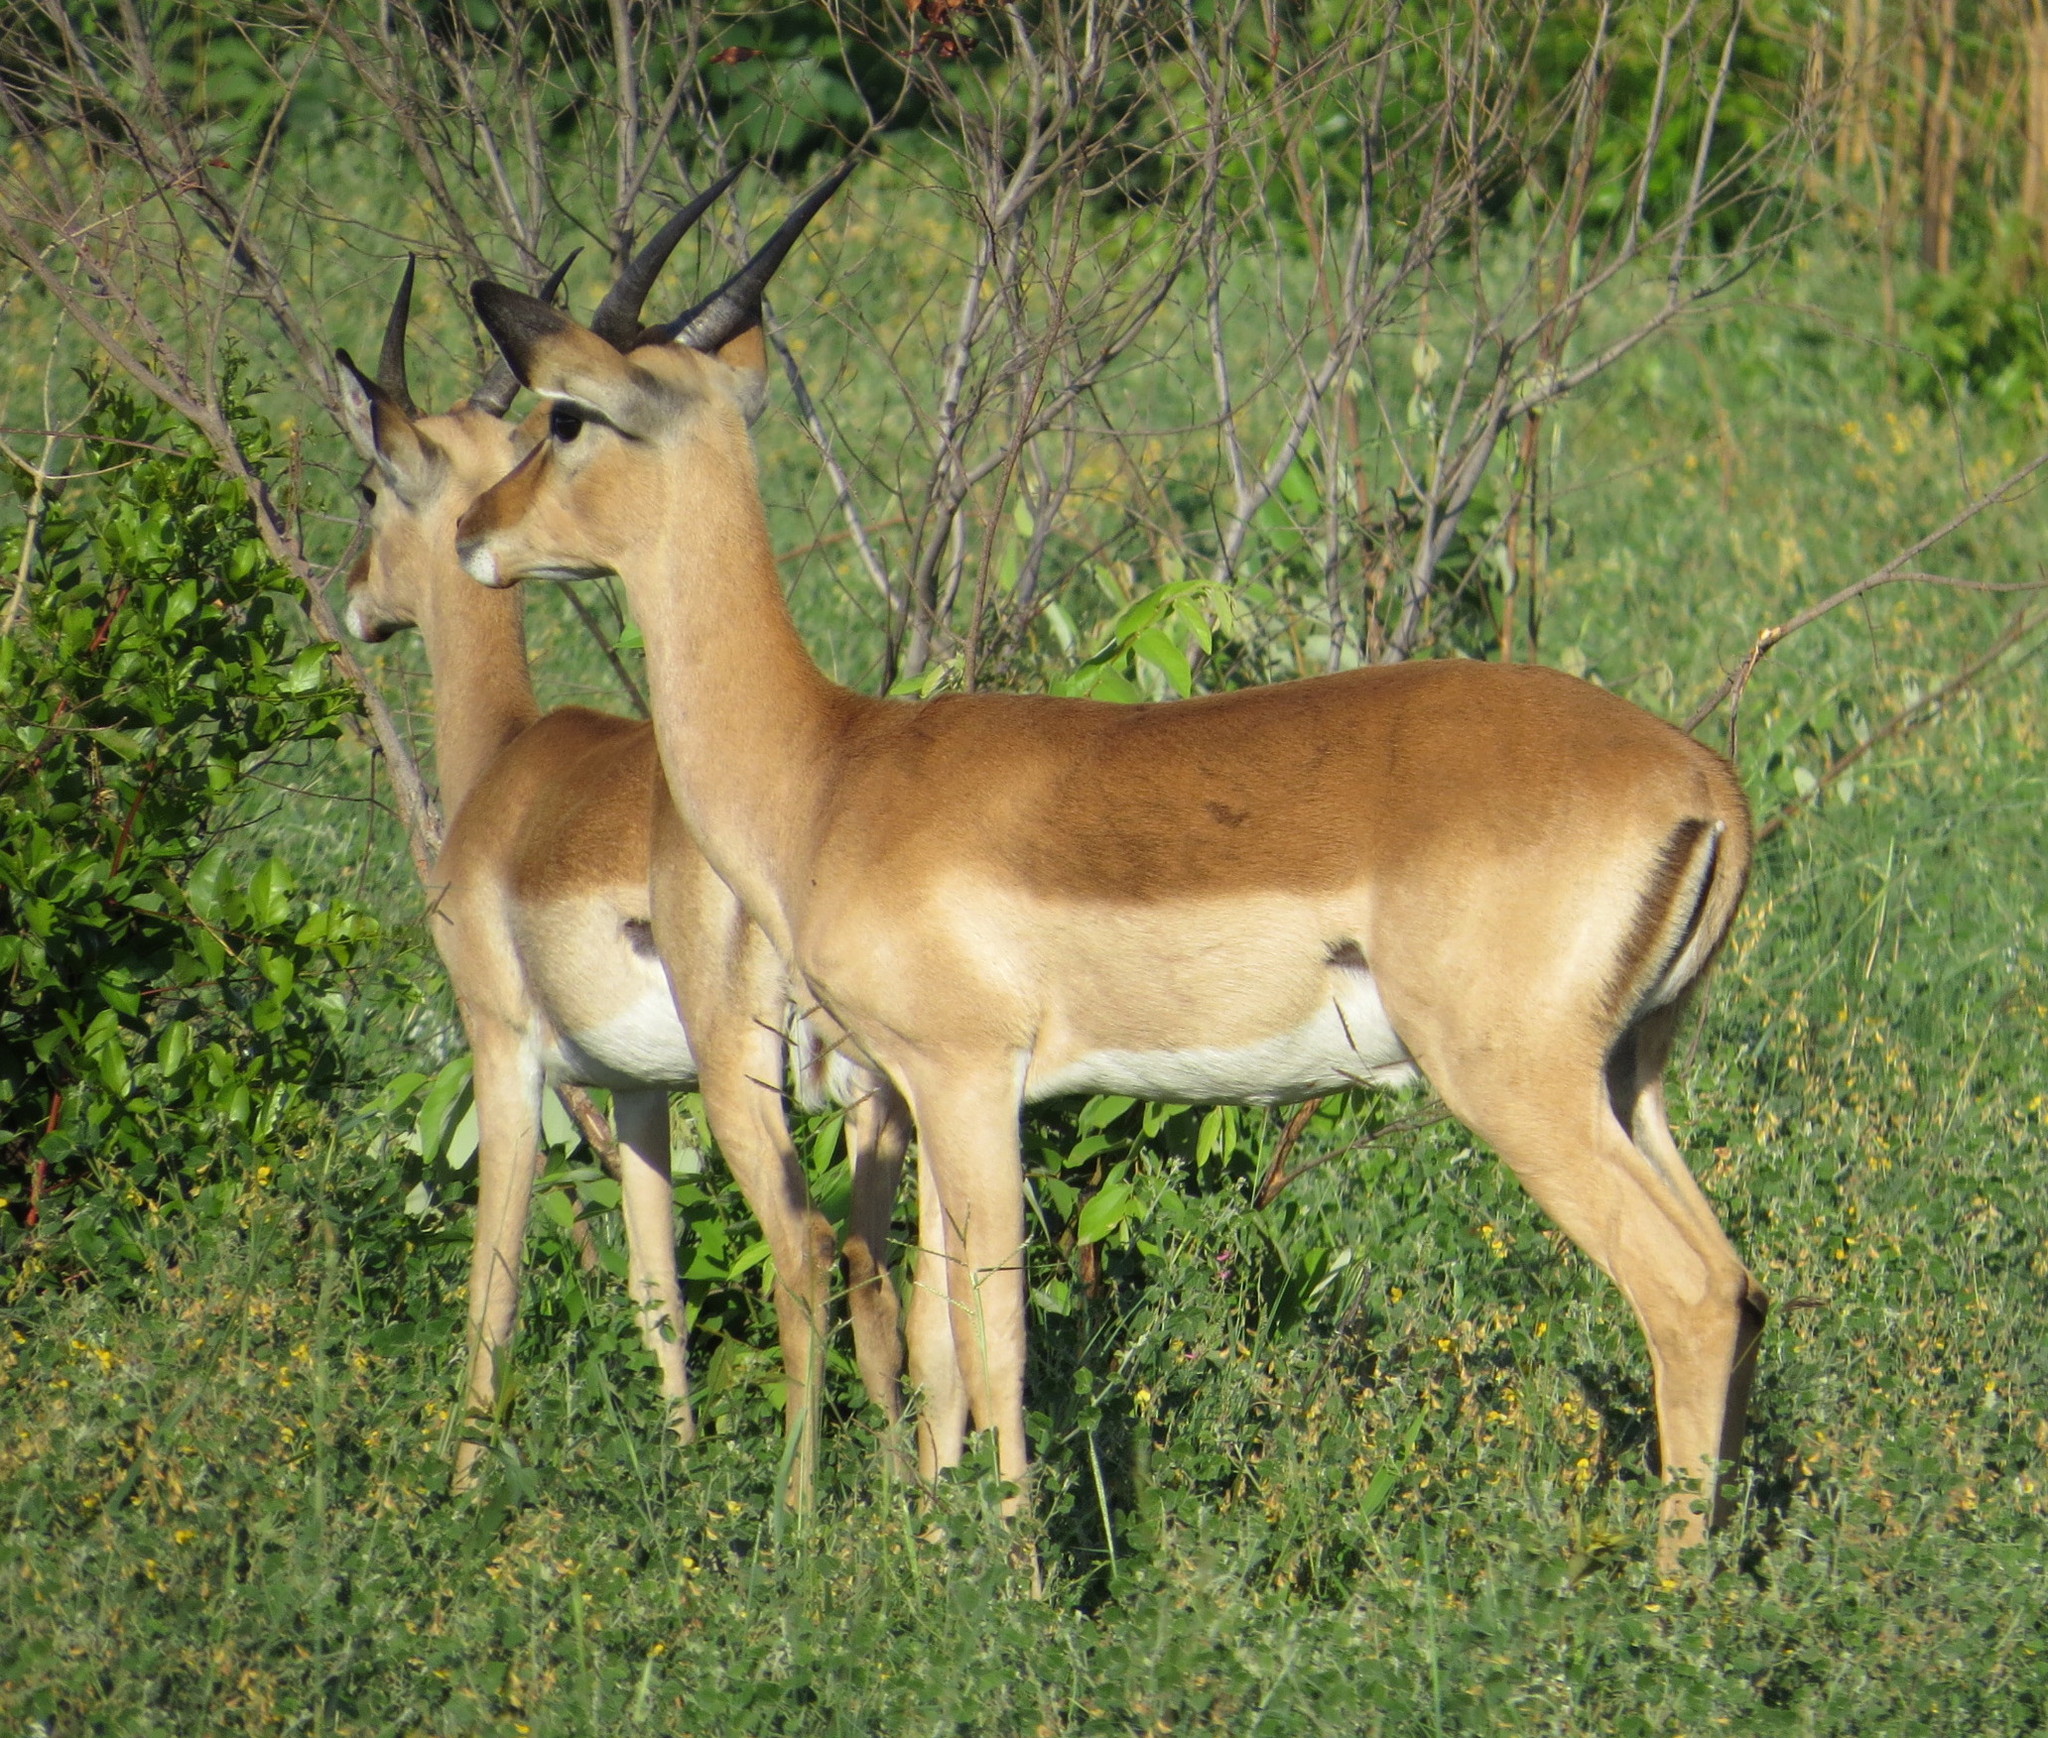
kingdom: Animalia
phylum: Chordata
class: Mammalia
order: Artiodactyla
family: Bovidae
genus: Aepyceros
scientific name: Aepyceros melampus
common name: Impala
